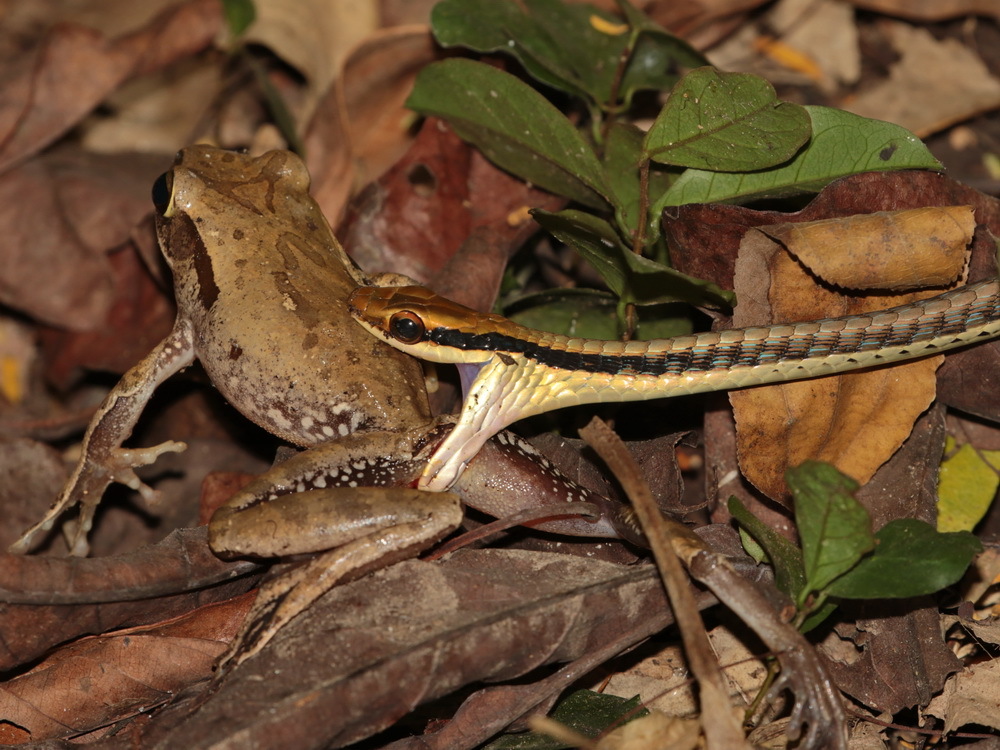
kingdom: Animalia
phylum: Chordata
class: Squamata
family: Colubridae
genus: Dendrelaphis
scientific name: Dendrelaphis pictus
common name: Indonesian bronze-back
